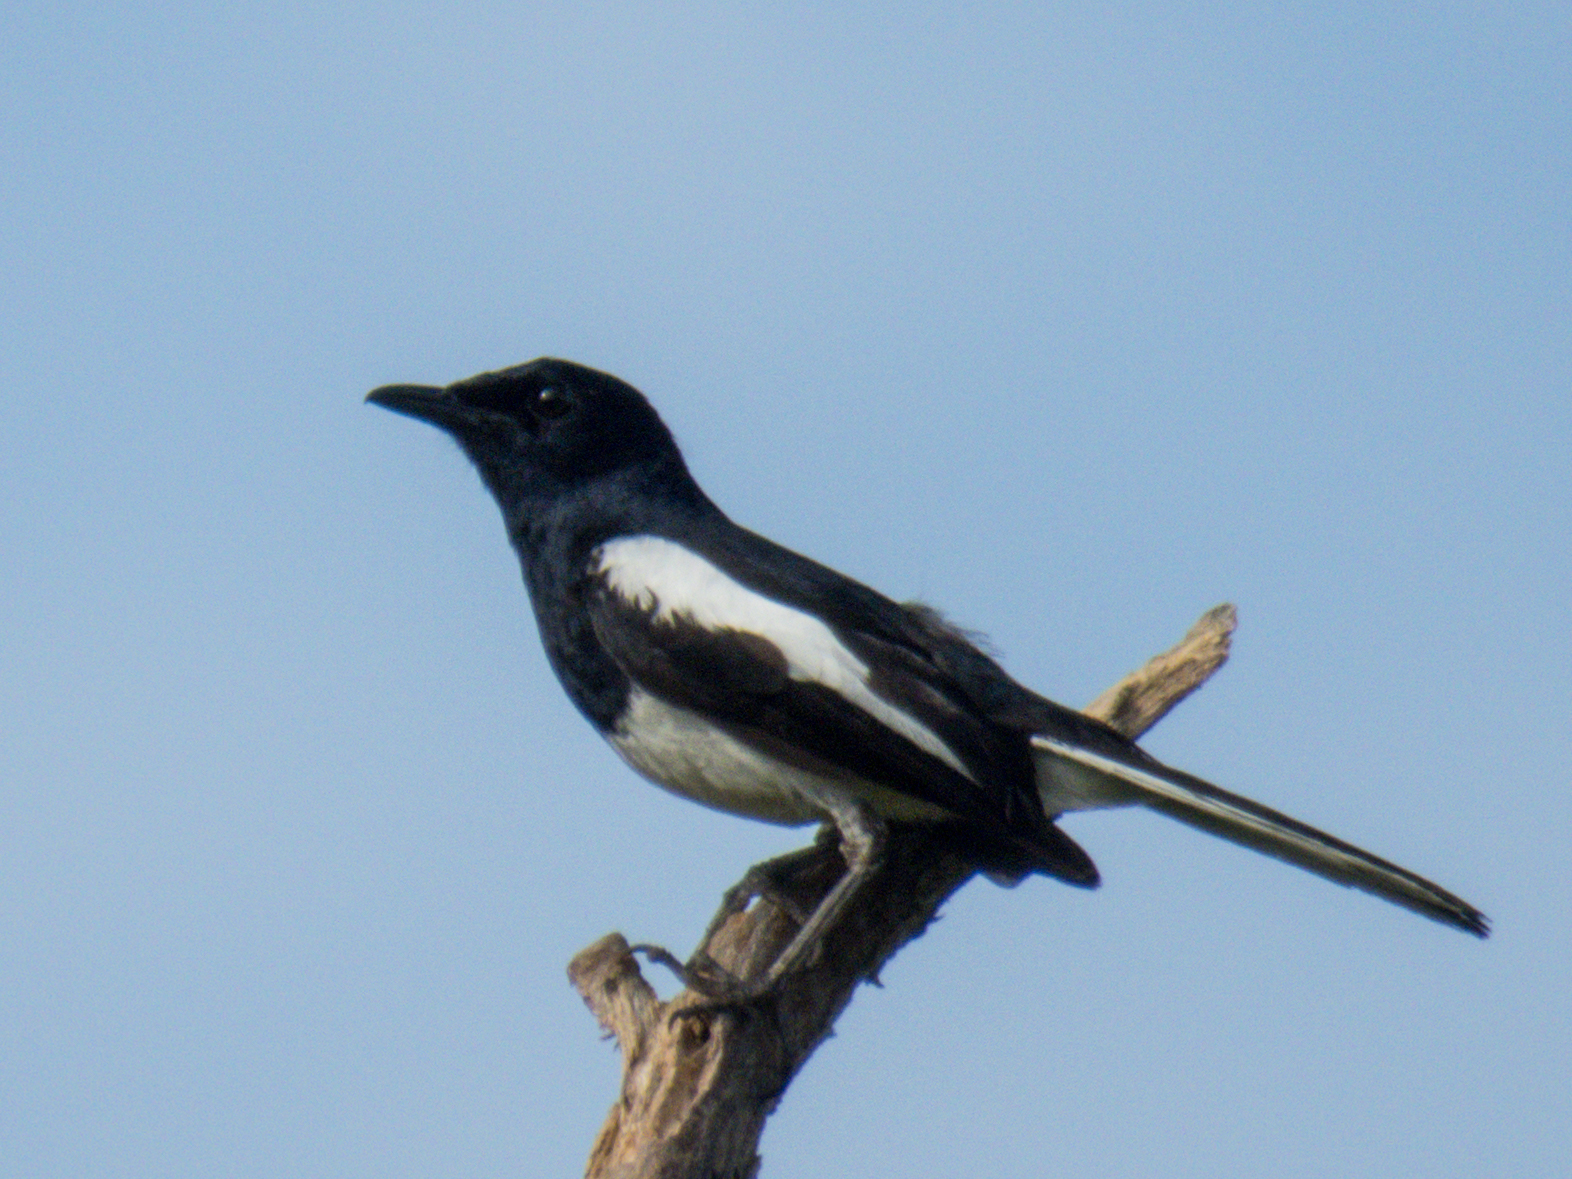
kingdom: Animalia
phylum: Chordata
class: Aves
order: Passeriformes
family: Muscicapidae
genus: Copsychus
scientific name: Copsychus saularis
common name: Oriental magpie-robin
